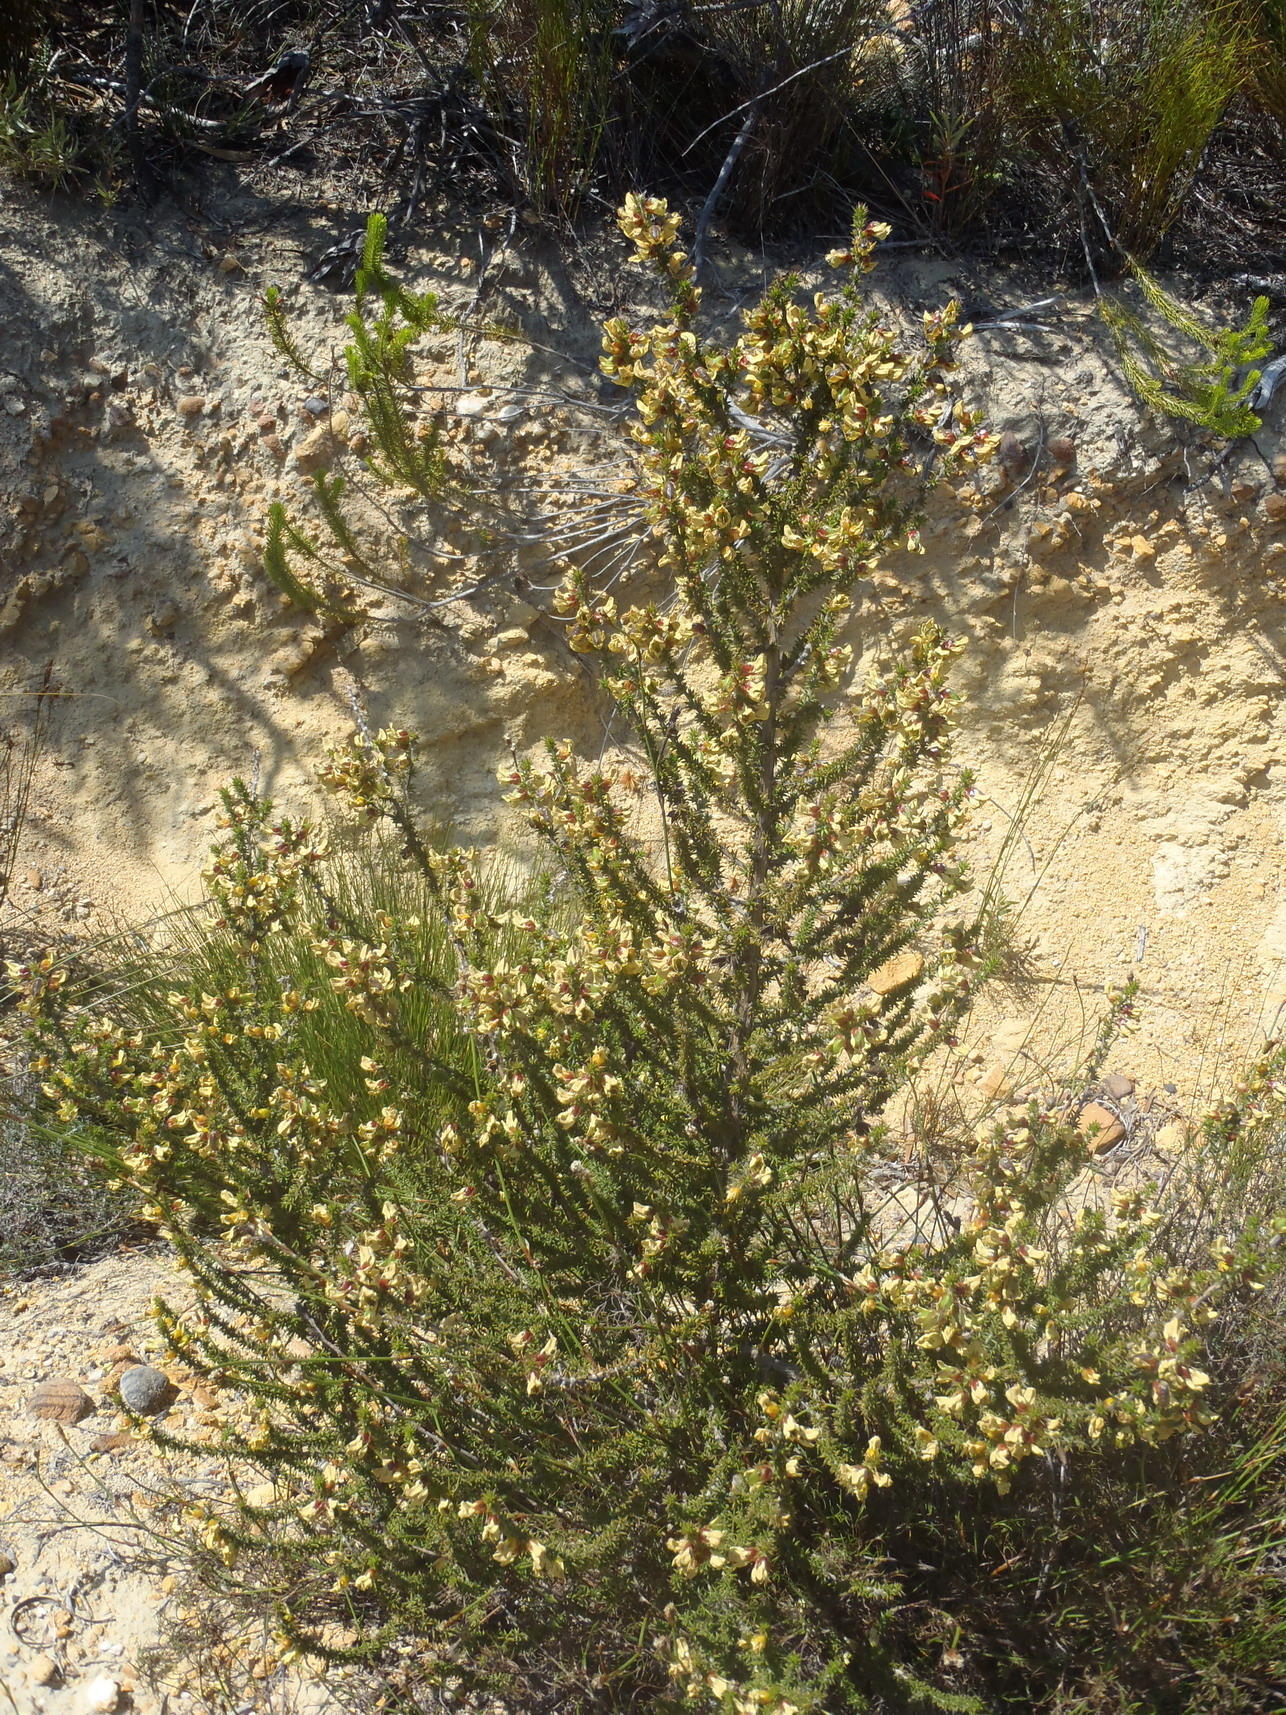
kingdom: Plantae
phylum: Tracheophyta
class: Magnoliopsida
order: Fabales
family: Fabaceae
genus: Aspalathus
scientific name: Aspalathus aciphylla
